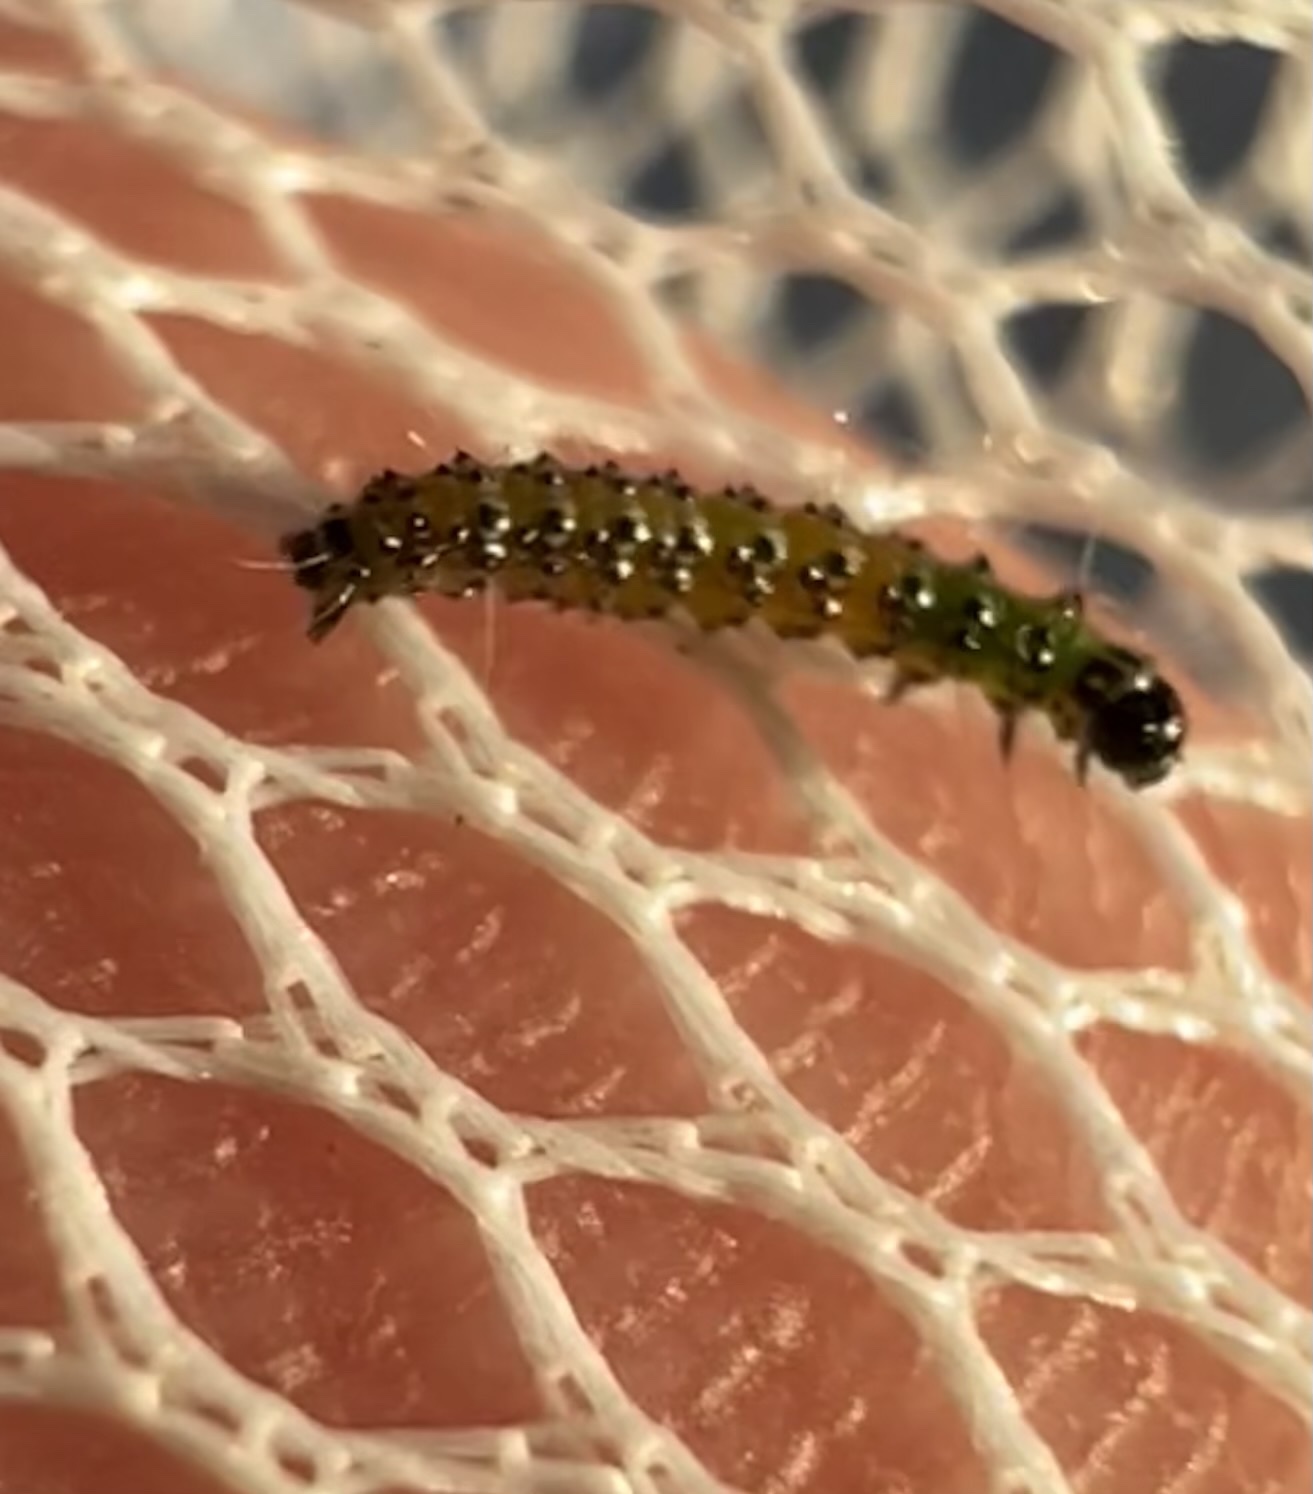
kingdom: Animalia
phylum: Arthropoda
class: Insecta
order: Lepidoptera
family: Crambidae
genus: Uresiphita
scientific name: Uresiphita reversalis
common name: Genista broom moth
